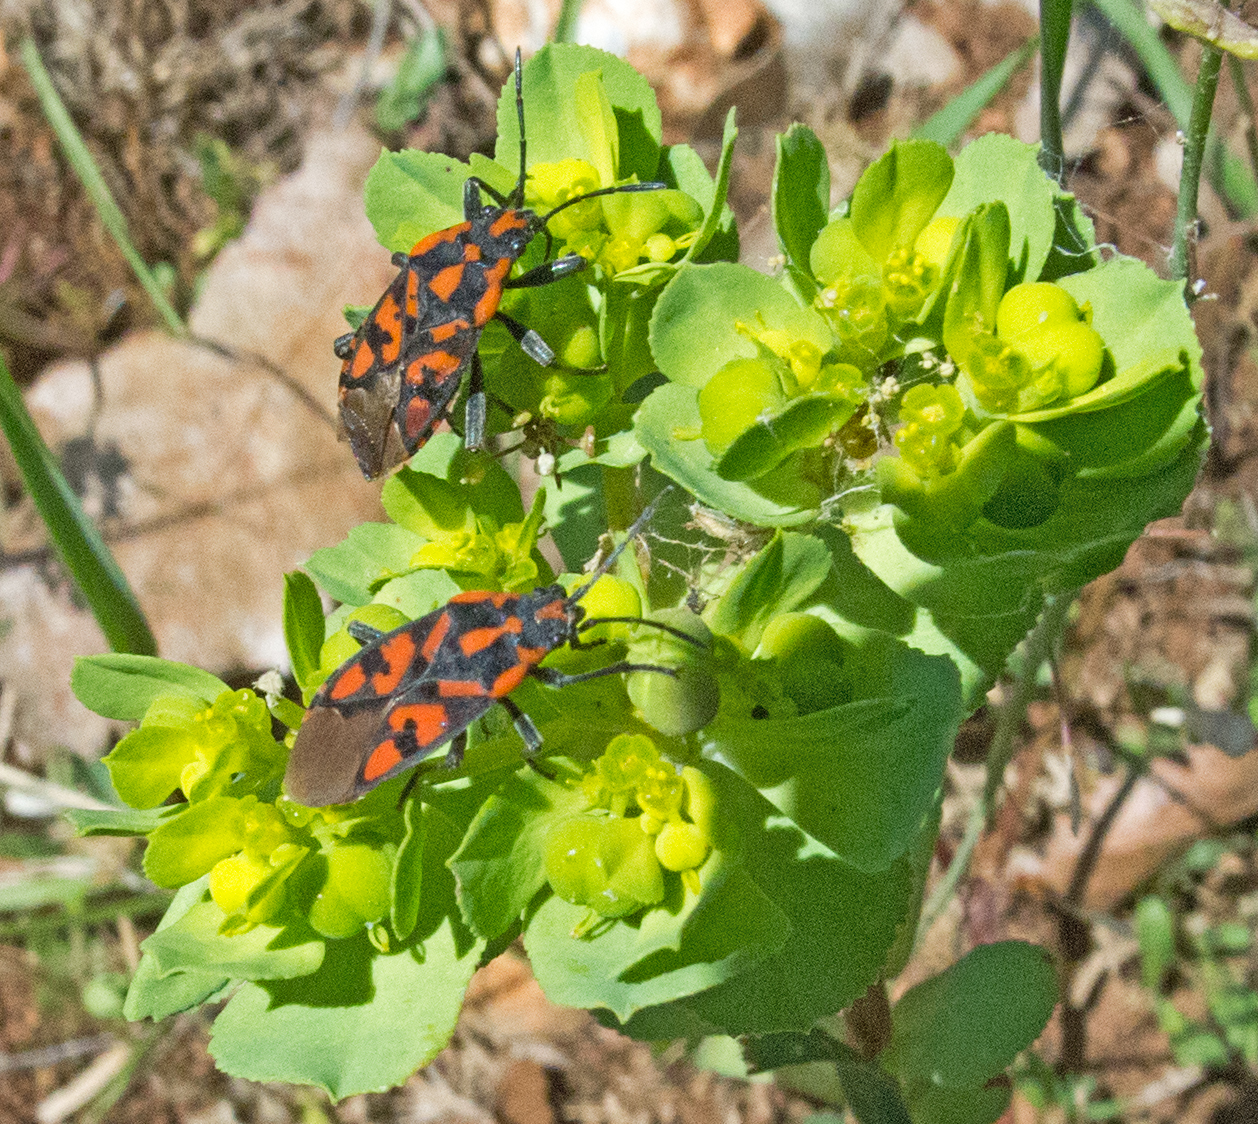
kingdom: Animalia
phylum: Arthropoda
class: Insecta
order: Hemiptera
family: Lygaeidae
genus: Spilostethus
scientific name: Spilostethus saxatilis
